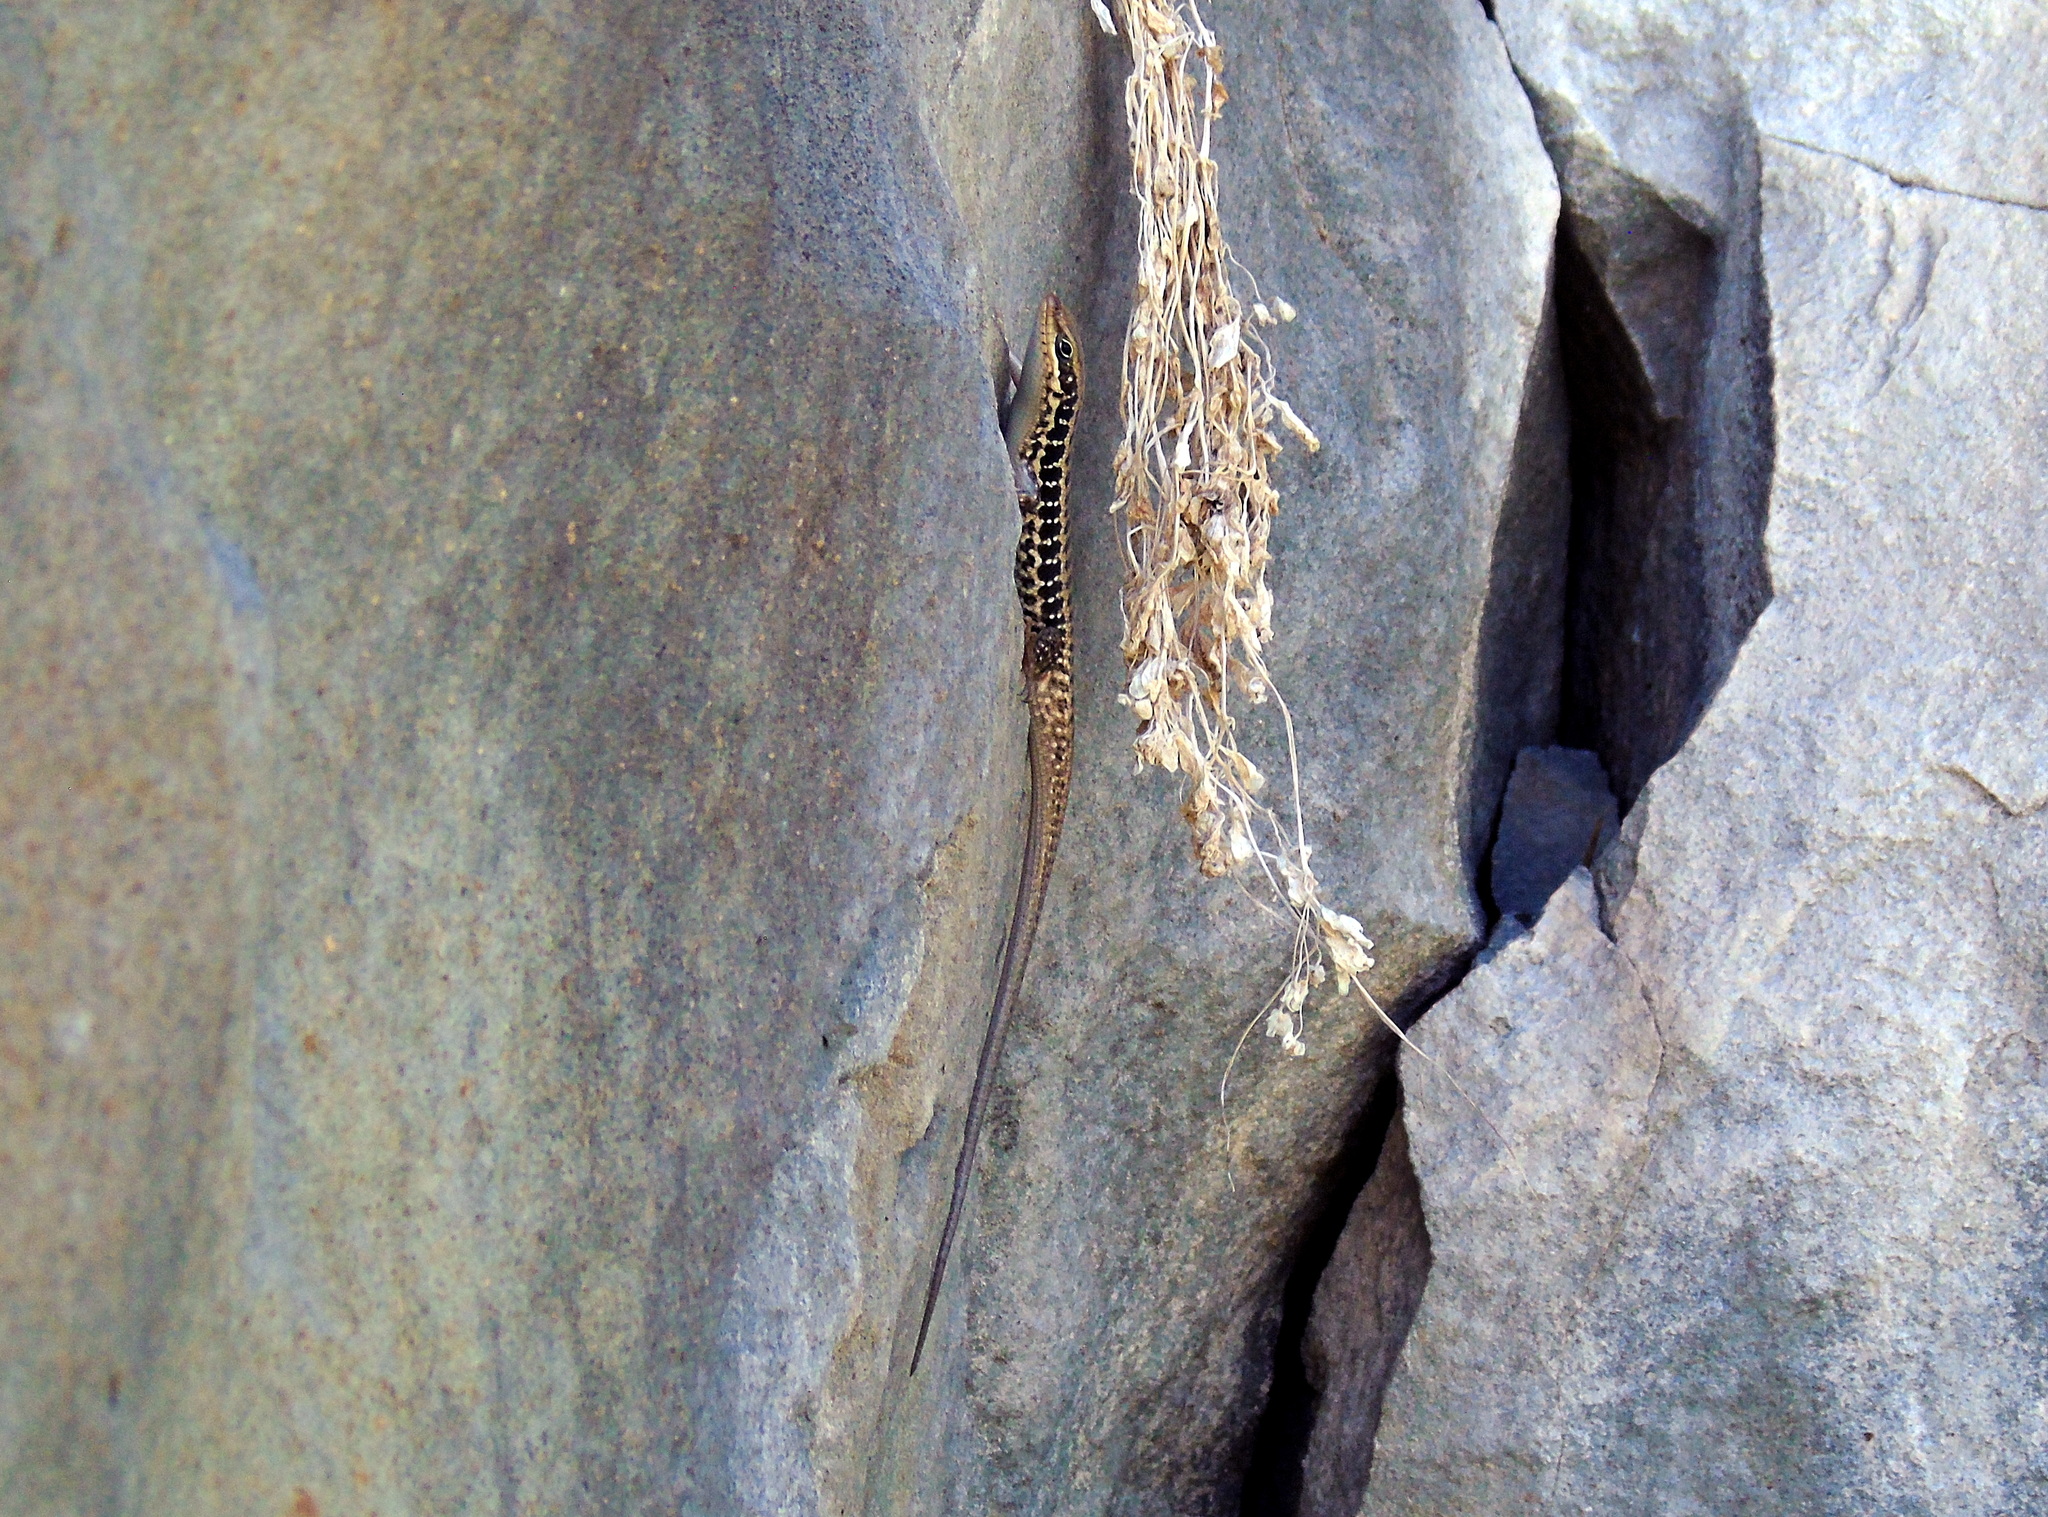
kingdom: Animalia
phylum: Chordata
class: Squamata
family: Scincidae
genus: Heremites
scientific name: Heremites auratus
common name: Golden grass mabuya
